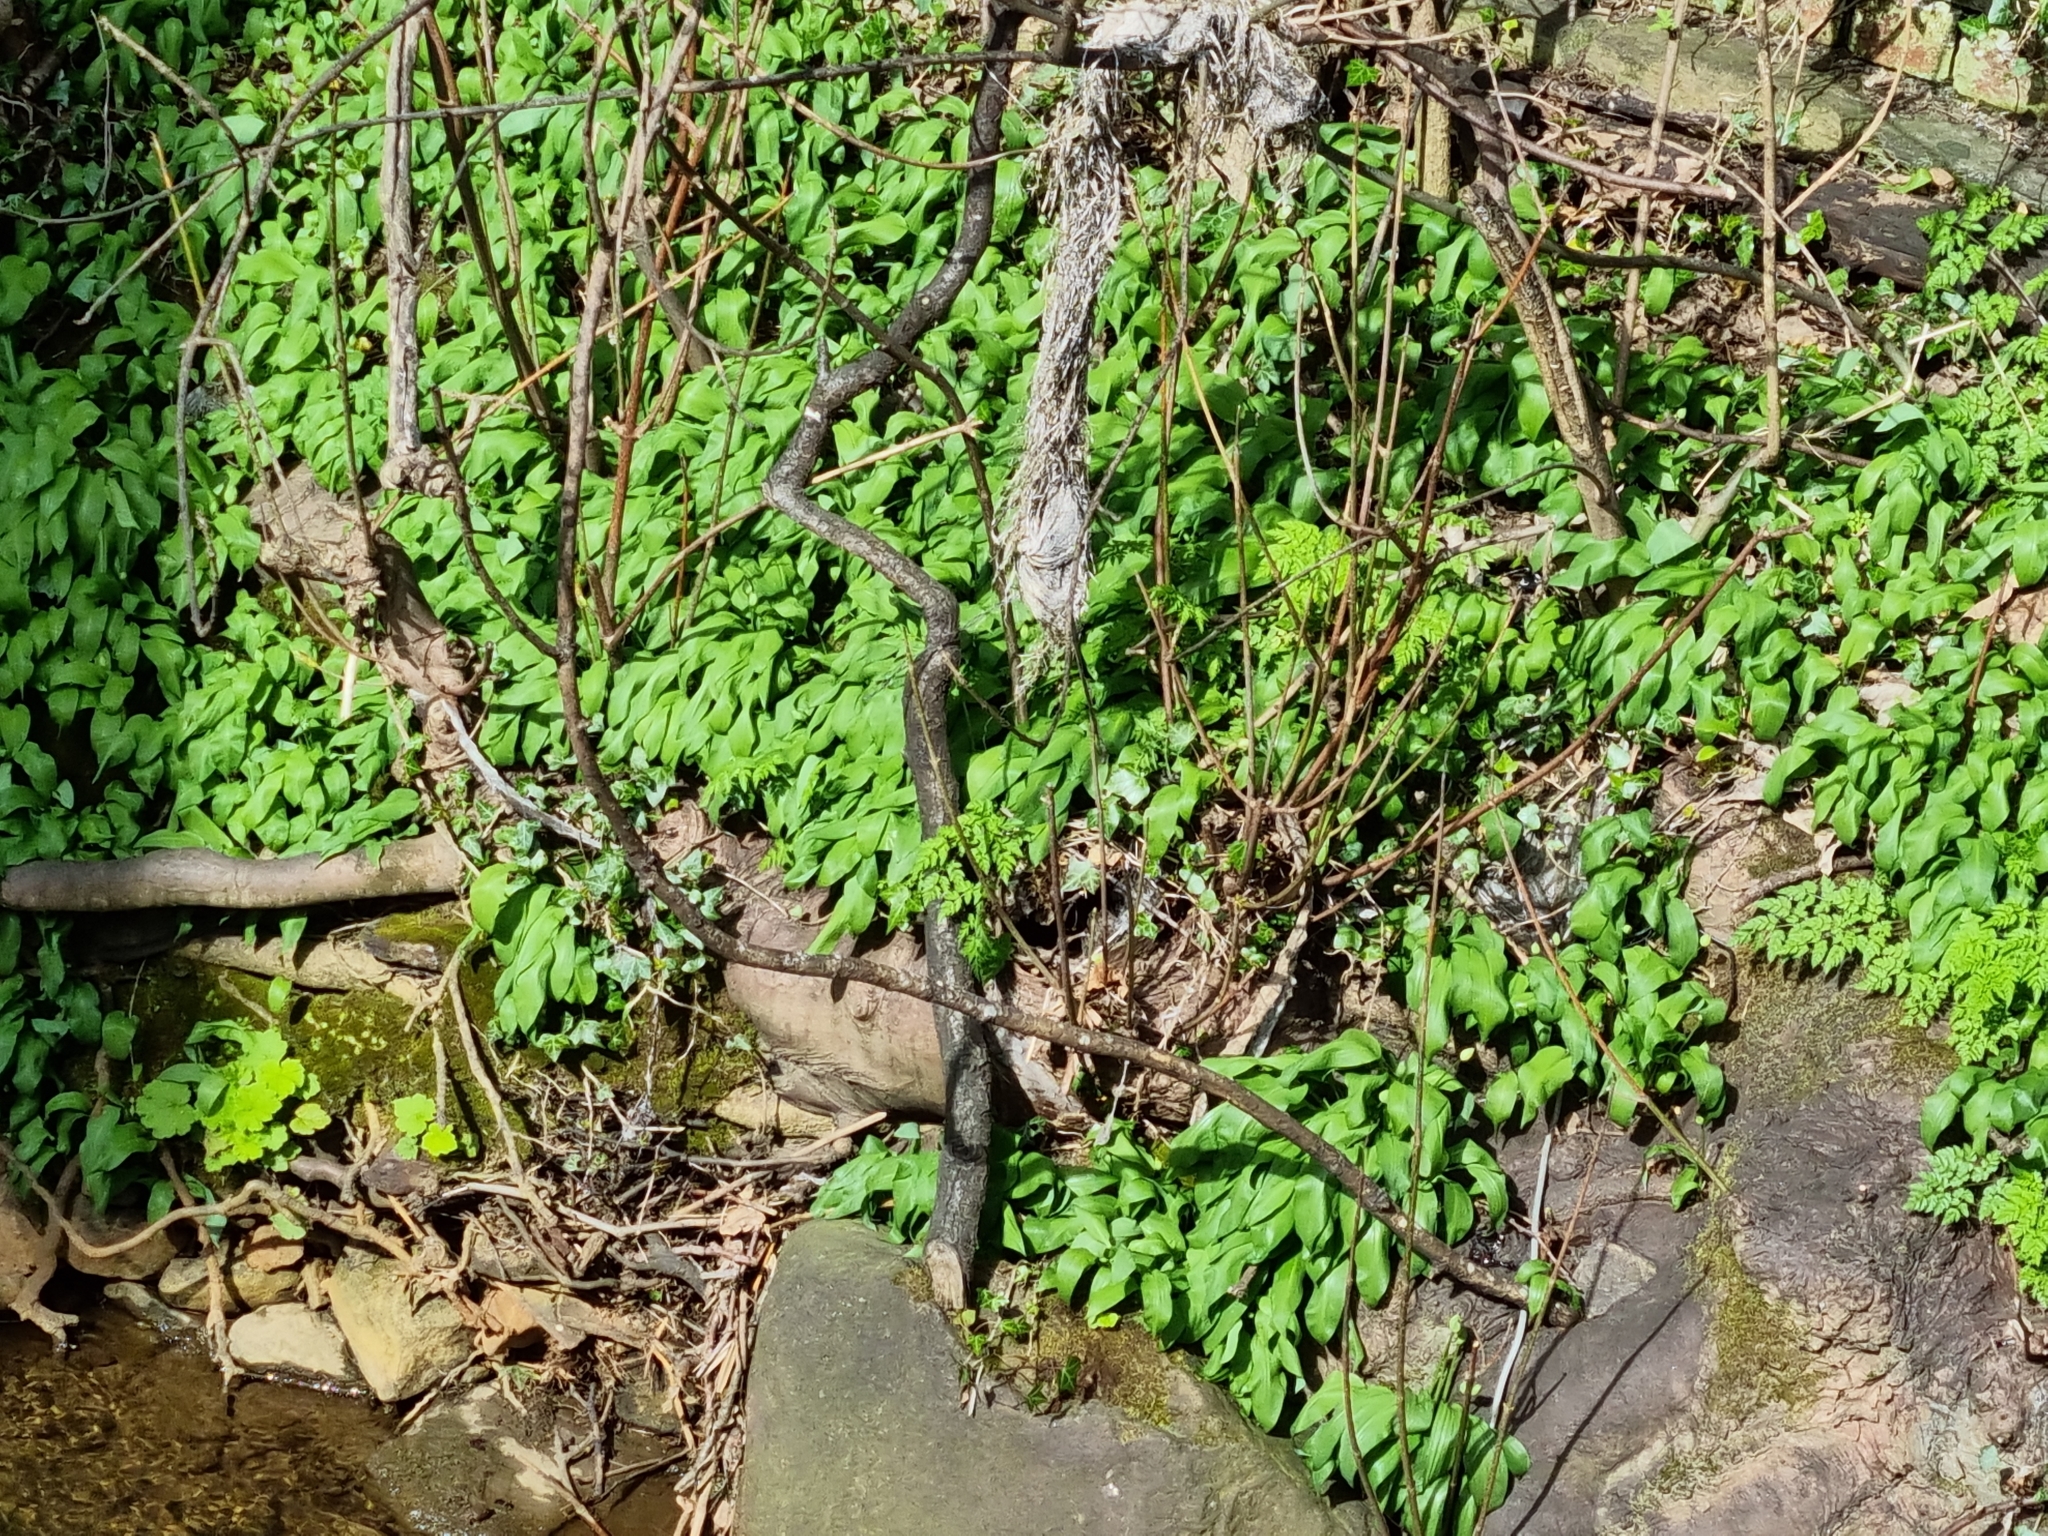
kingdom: Plantae
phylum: Tracheophyta
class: Liliopsida
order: Asparagales
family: Amaryllidaceae
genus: Allium
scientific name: Allium ursinum
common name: Ramsons
